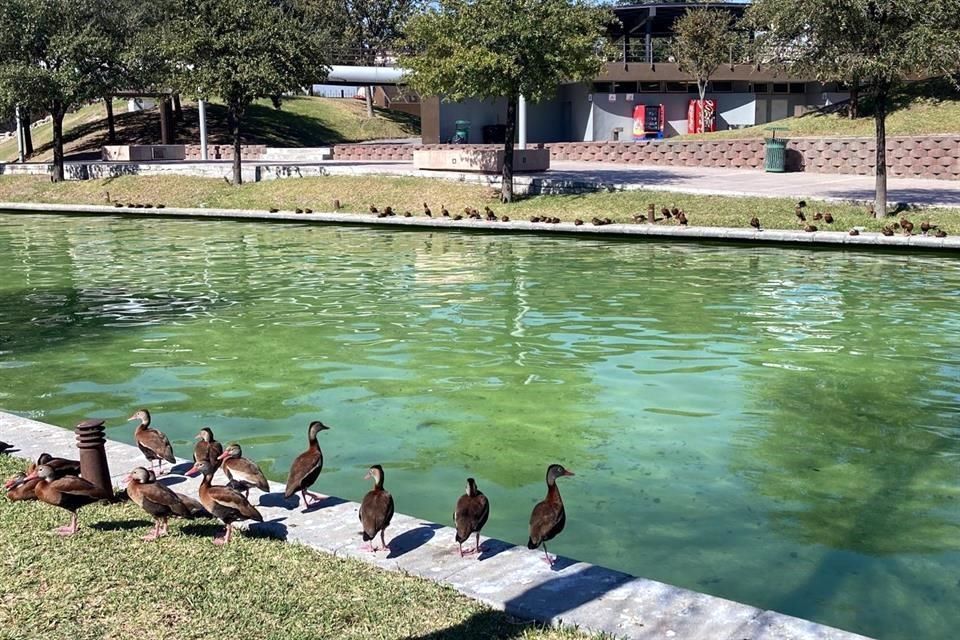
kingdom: Animalia
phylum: Chordata
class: Aves
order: Anseriformes
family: Anatidae
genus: Dendrocygna
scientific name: Dendrocygna autumnalis
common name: Black-bellied whistling duck
